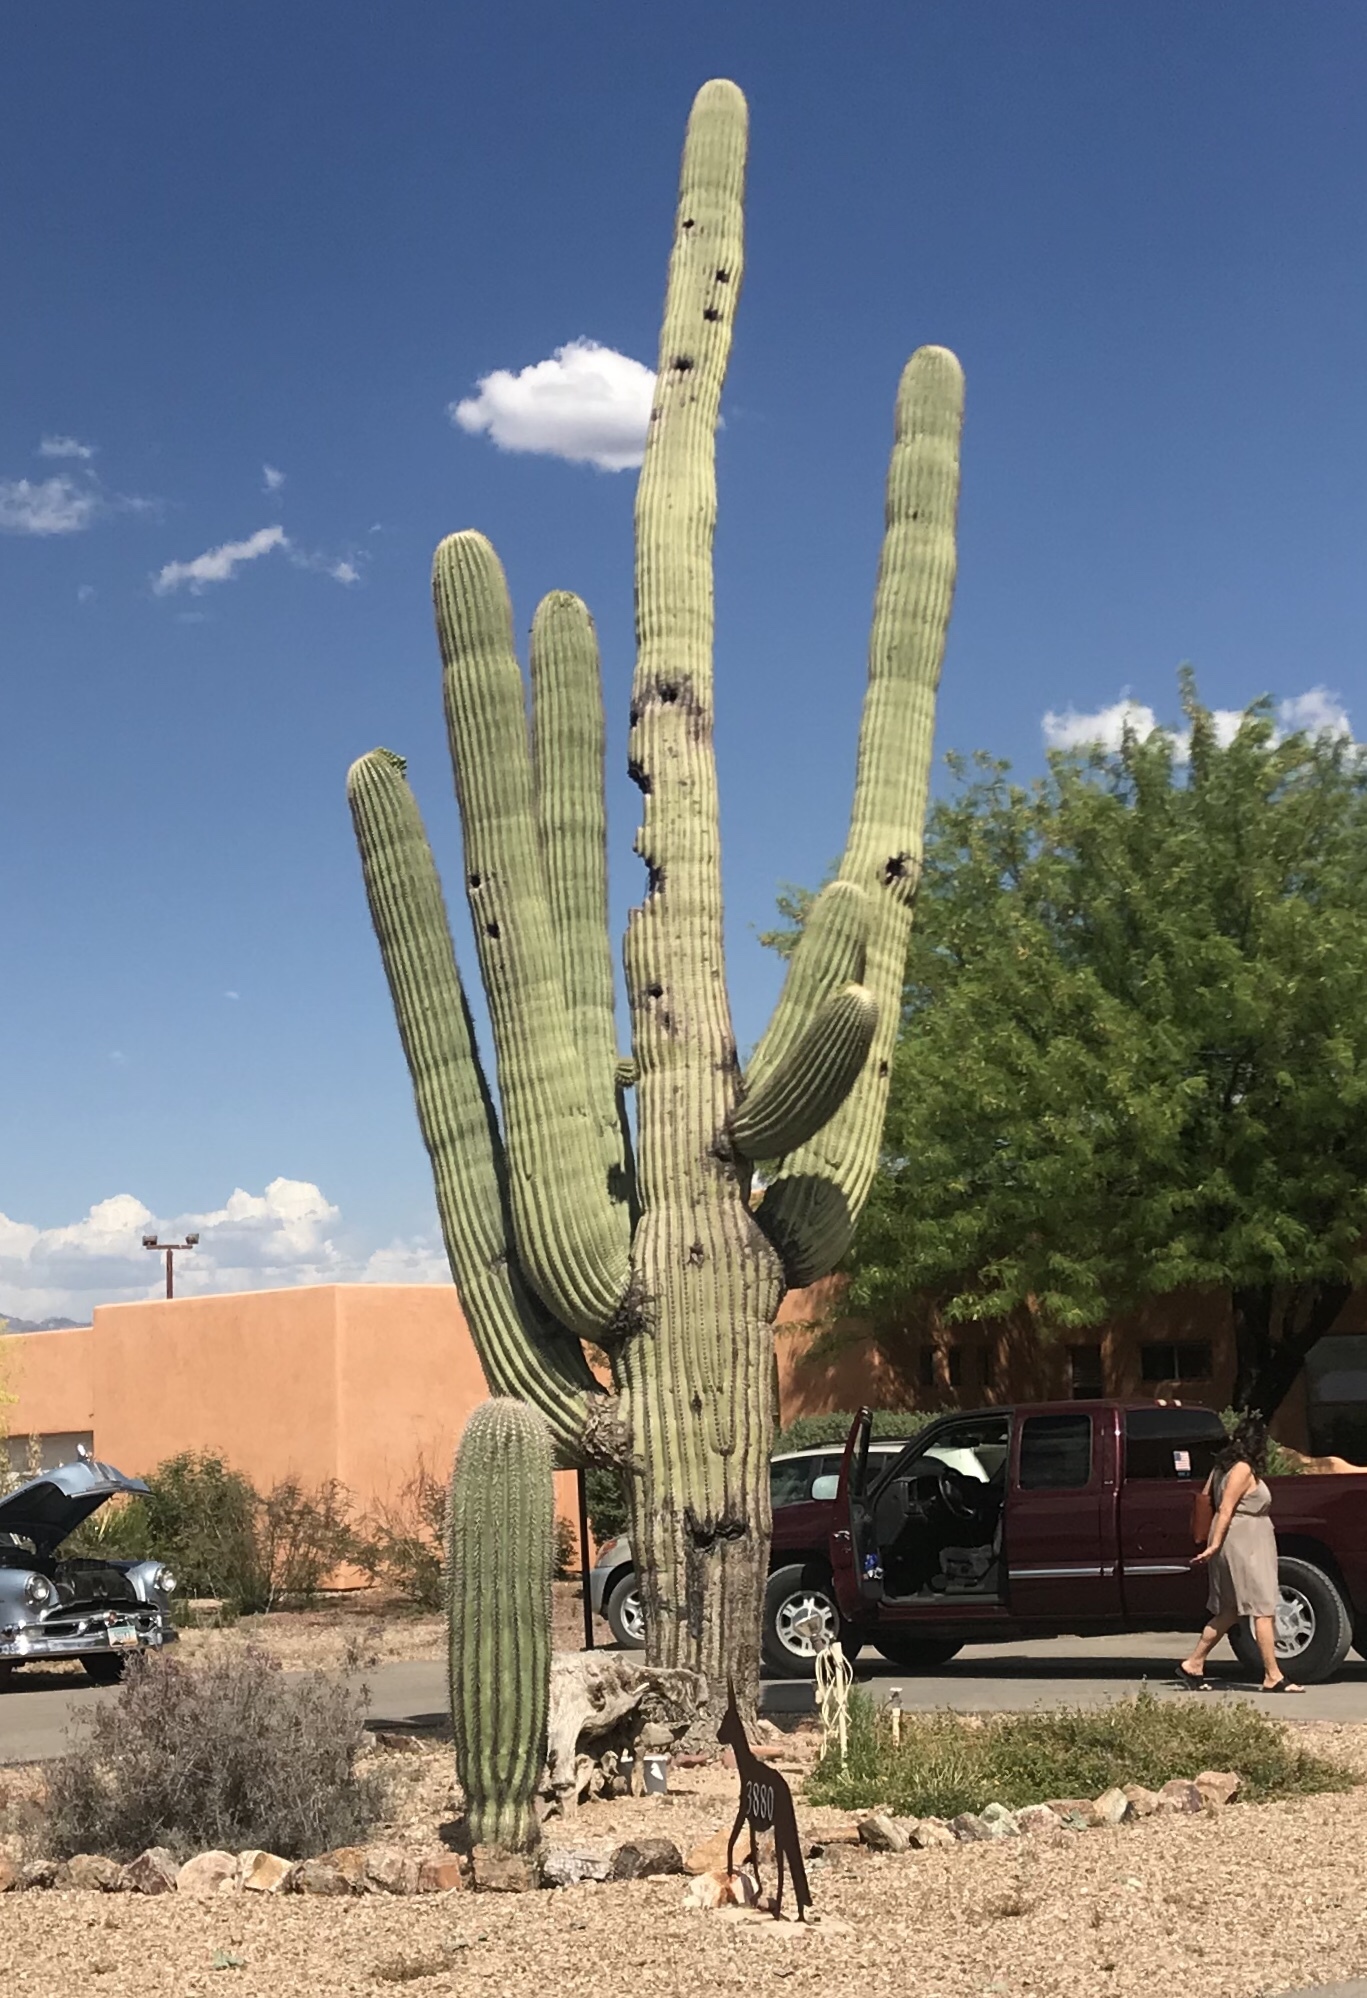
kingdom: Plantae
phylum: Tracheophyta
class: Magnoliopsida
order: Caryophyllales
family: Cactaceae
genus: Carnegiea
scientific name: Carnegiea gigantea
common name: Saguaro
